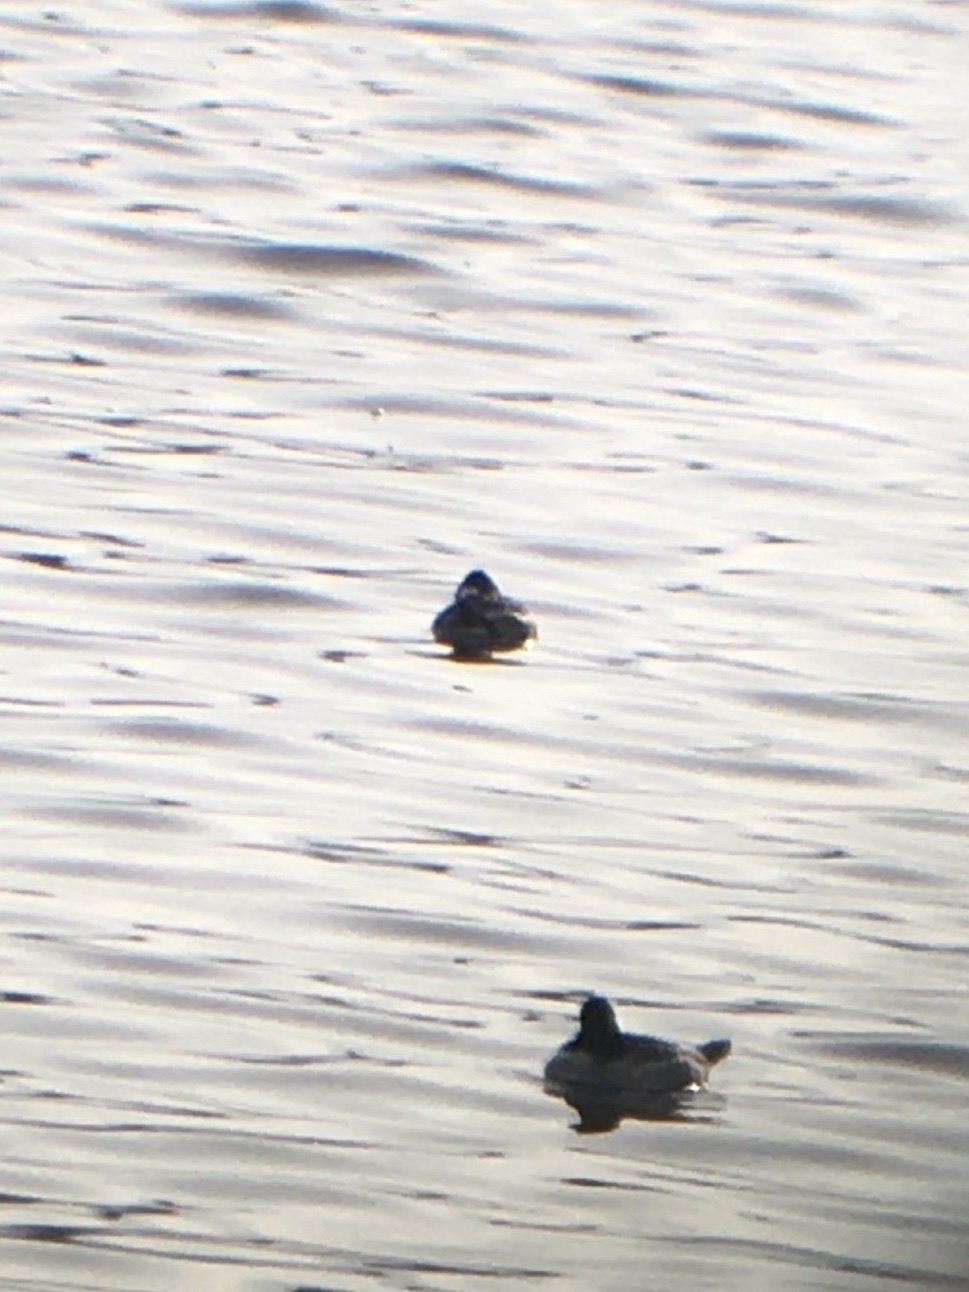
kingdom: Animalia
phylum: Chordata
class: Aves
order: Anseriformes
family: Anatidae
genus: Oxyura
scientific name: Oxyura jamaicensis
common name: Ruddy duck
